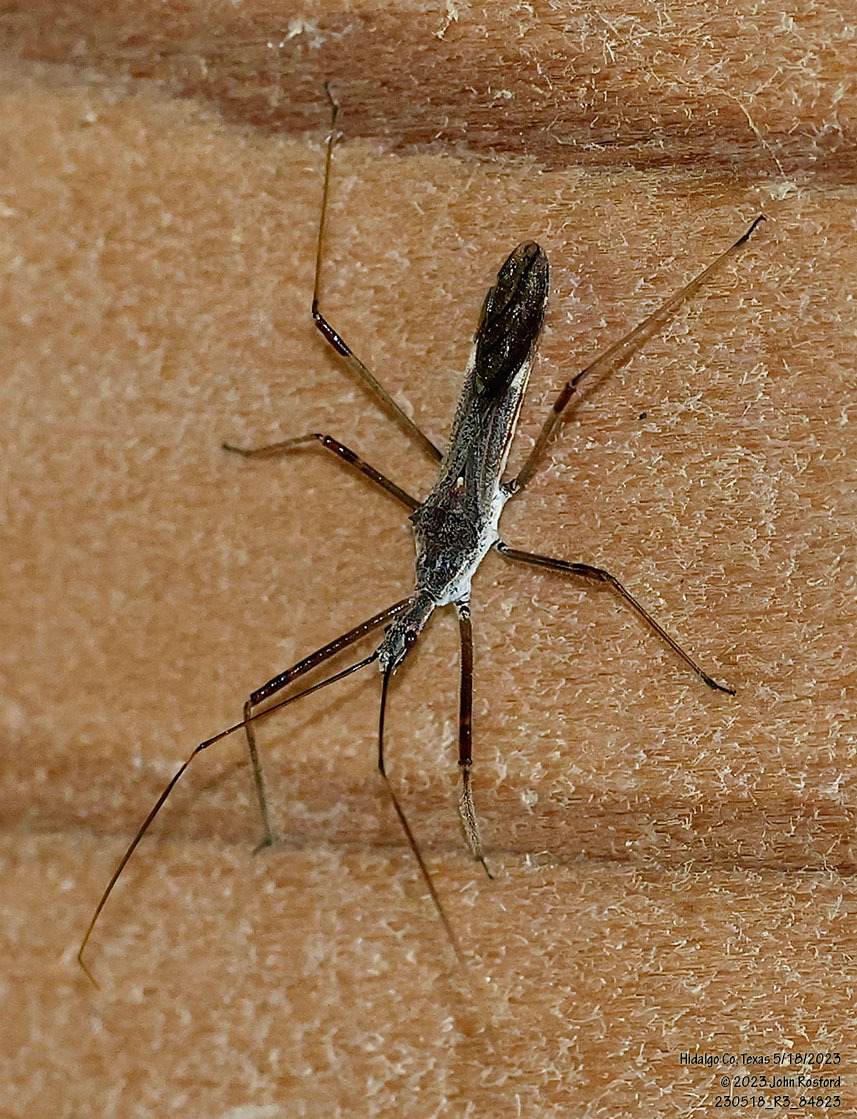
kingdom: Animalia
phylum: Arthropoda
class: Insecta
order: Hemiptera
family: Reduviidae
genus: Zelus
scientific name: Zelus tetracanthus
